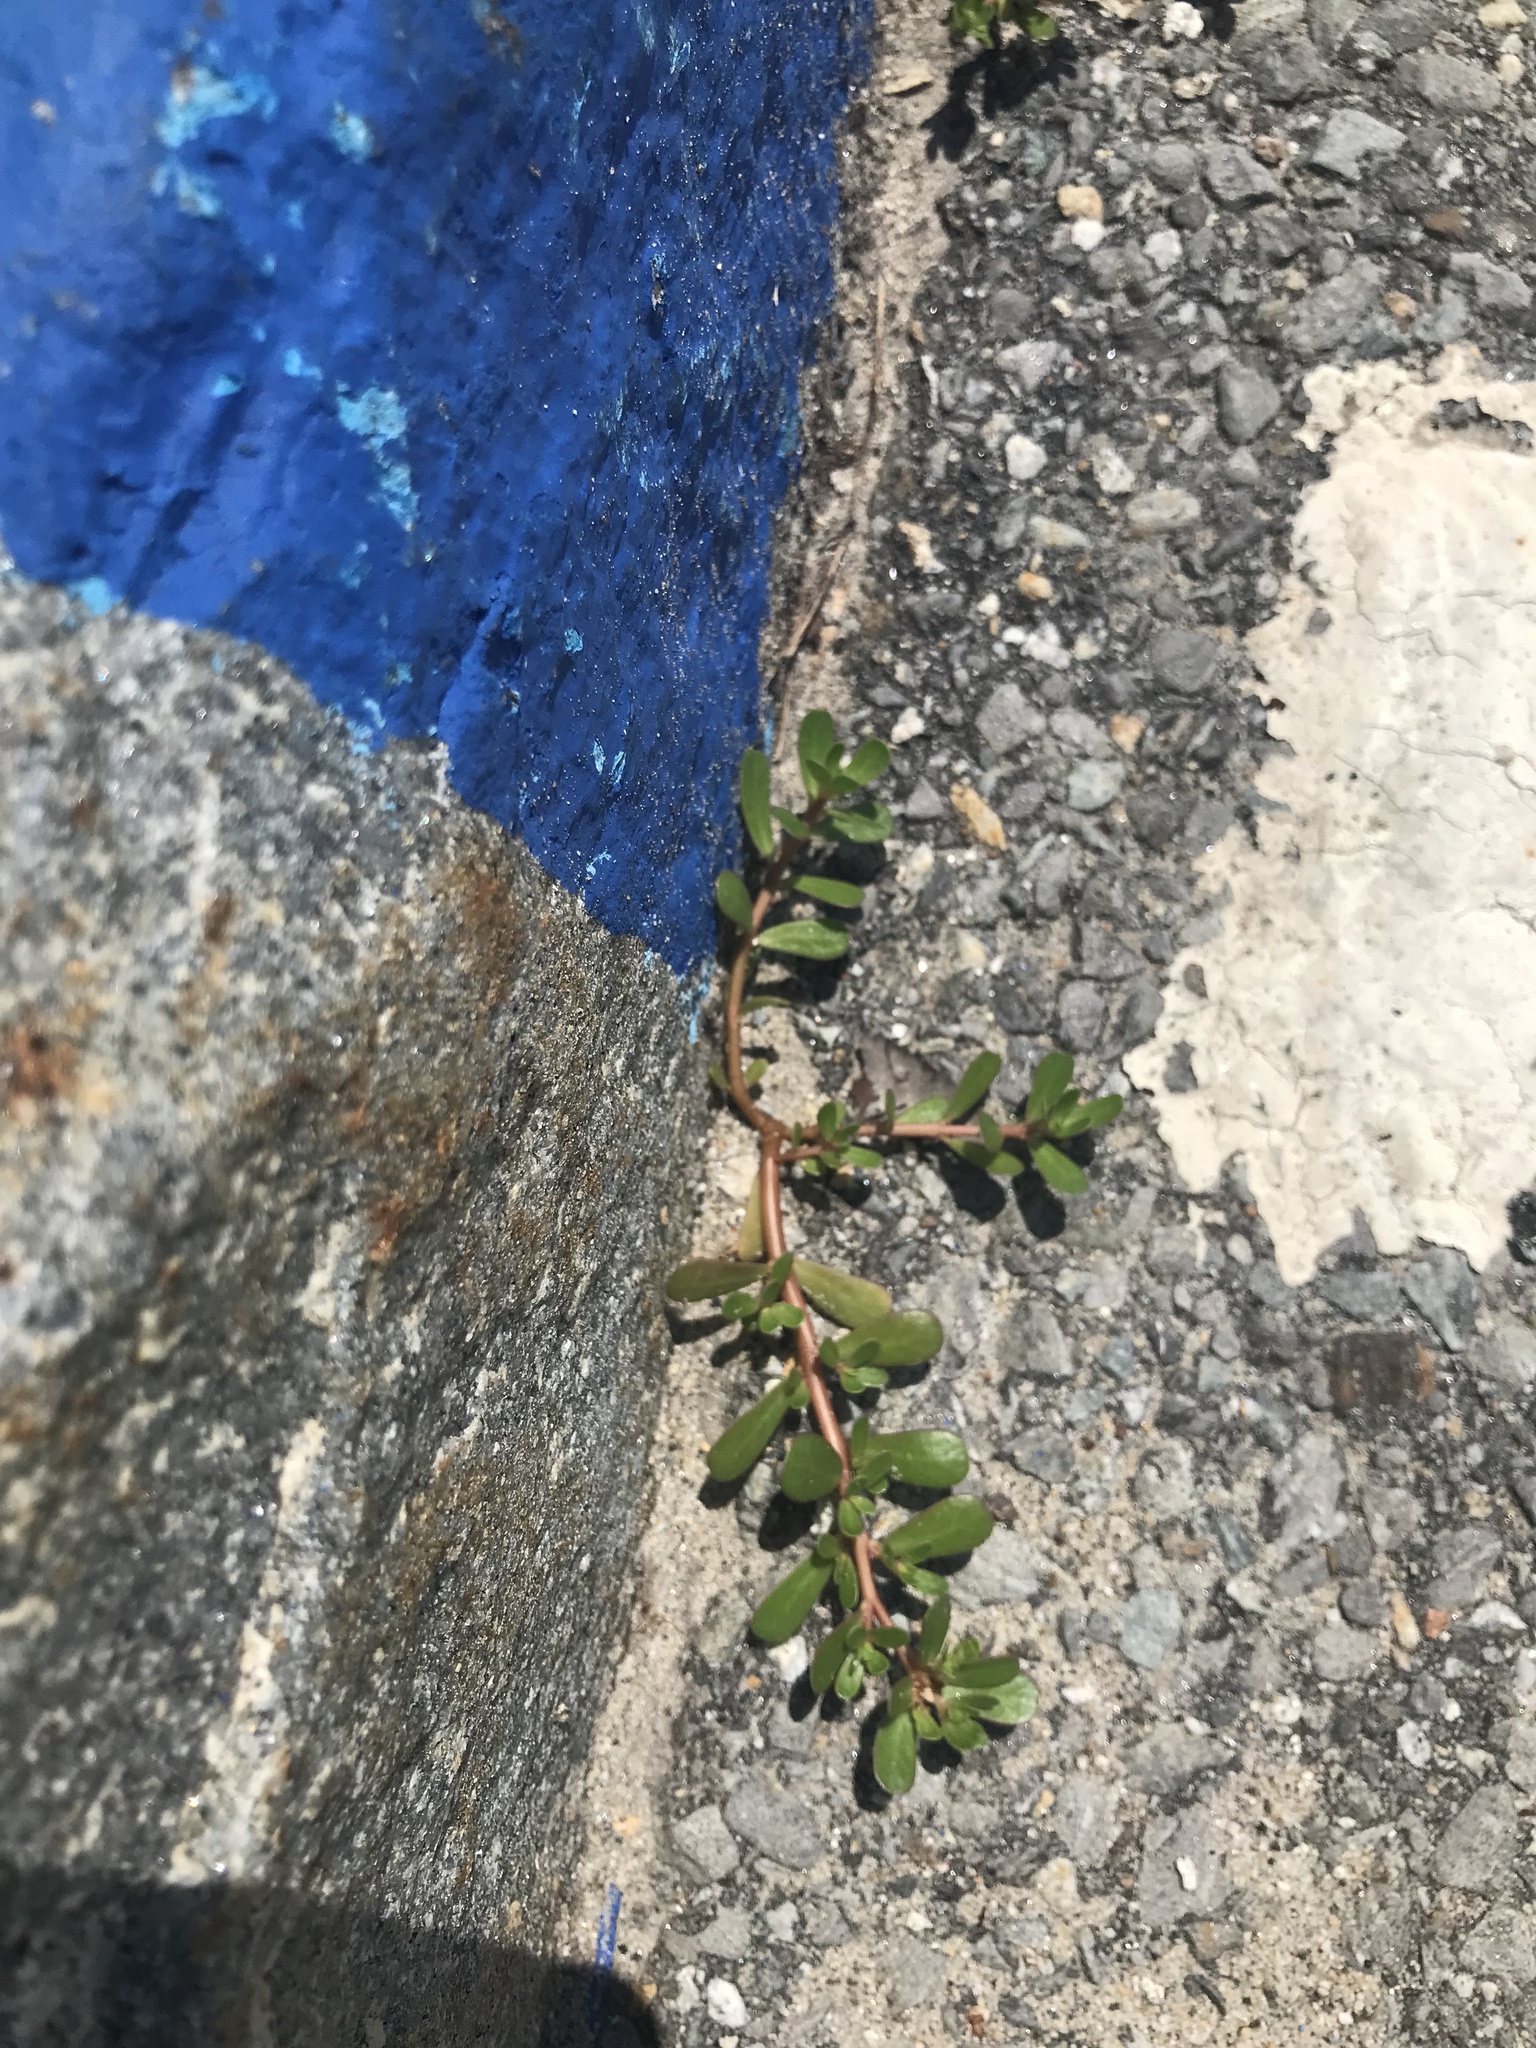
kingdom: Plantae
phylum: Tracheophyta
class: Magnoliopsida
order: Caryophyllales
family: Portulacaceae
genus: Portulaca
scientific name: Portulaca oleracea
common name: Common purslane
